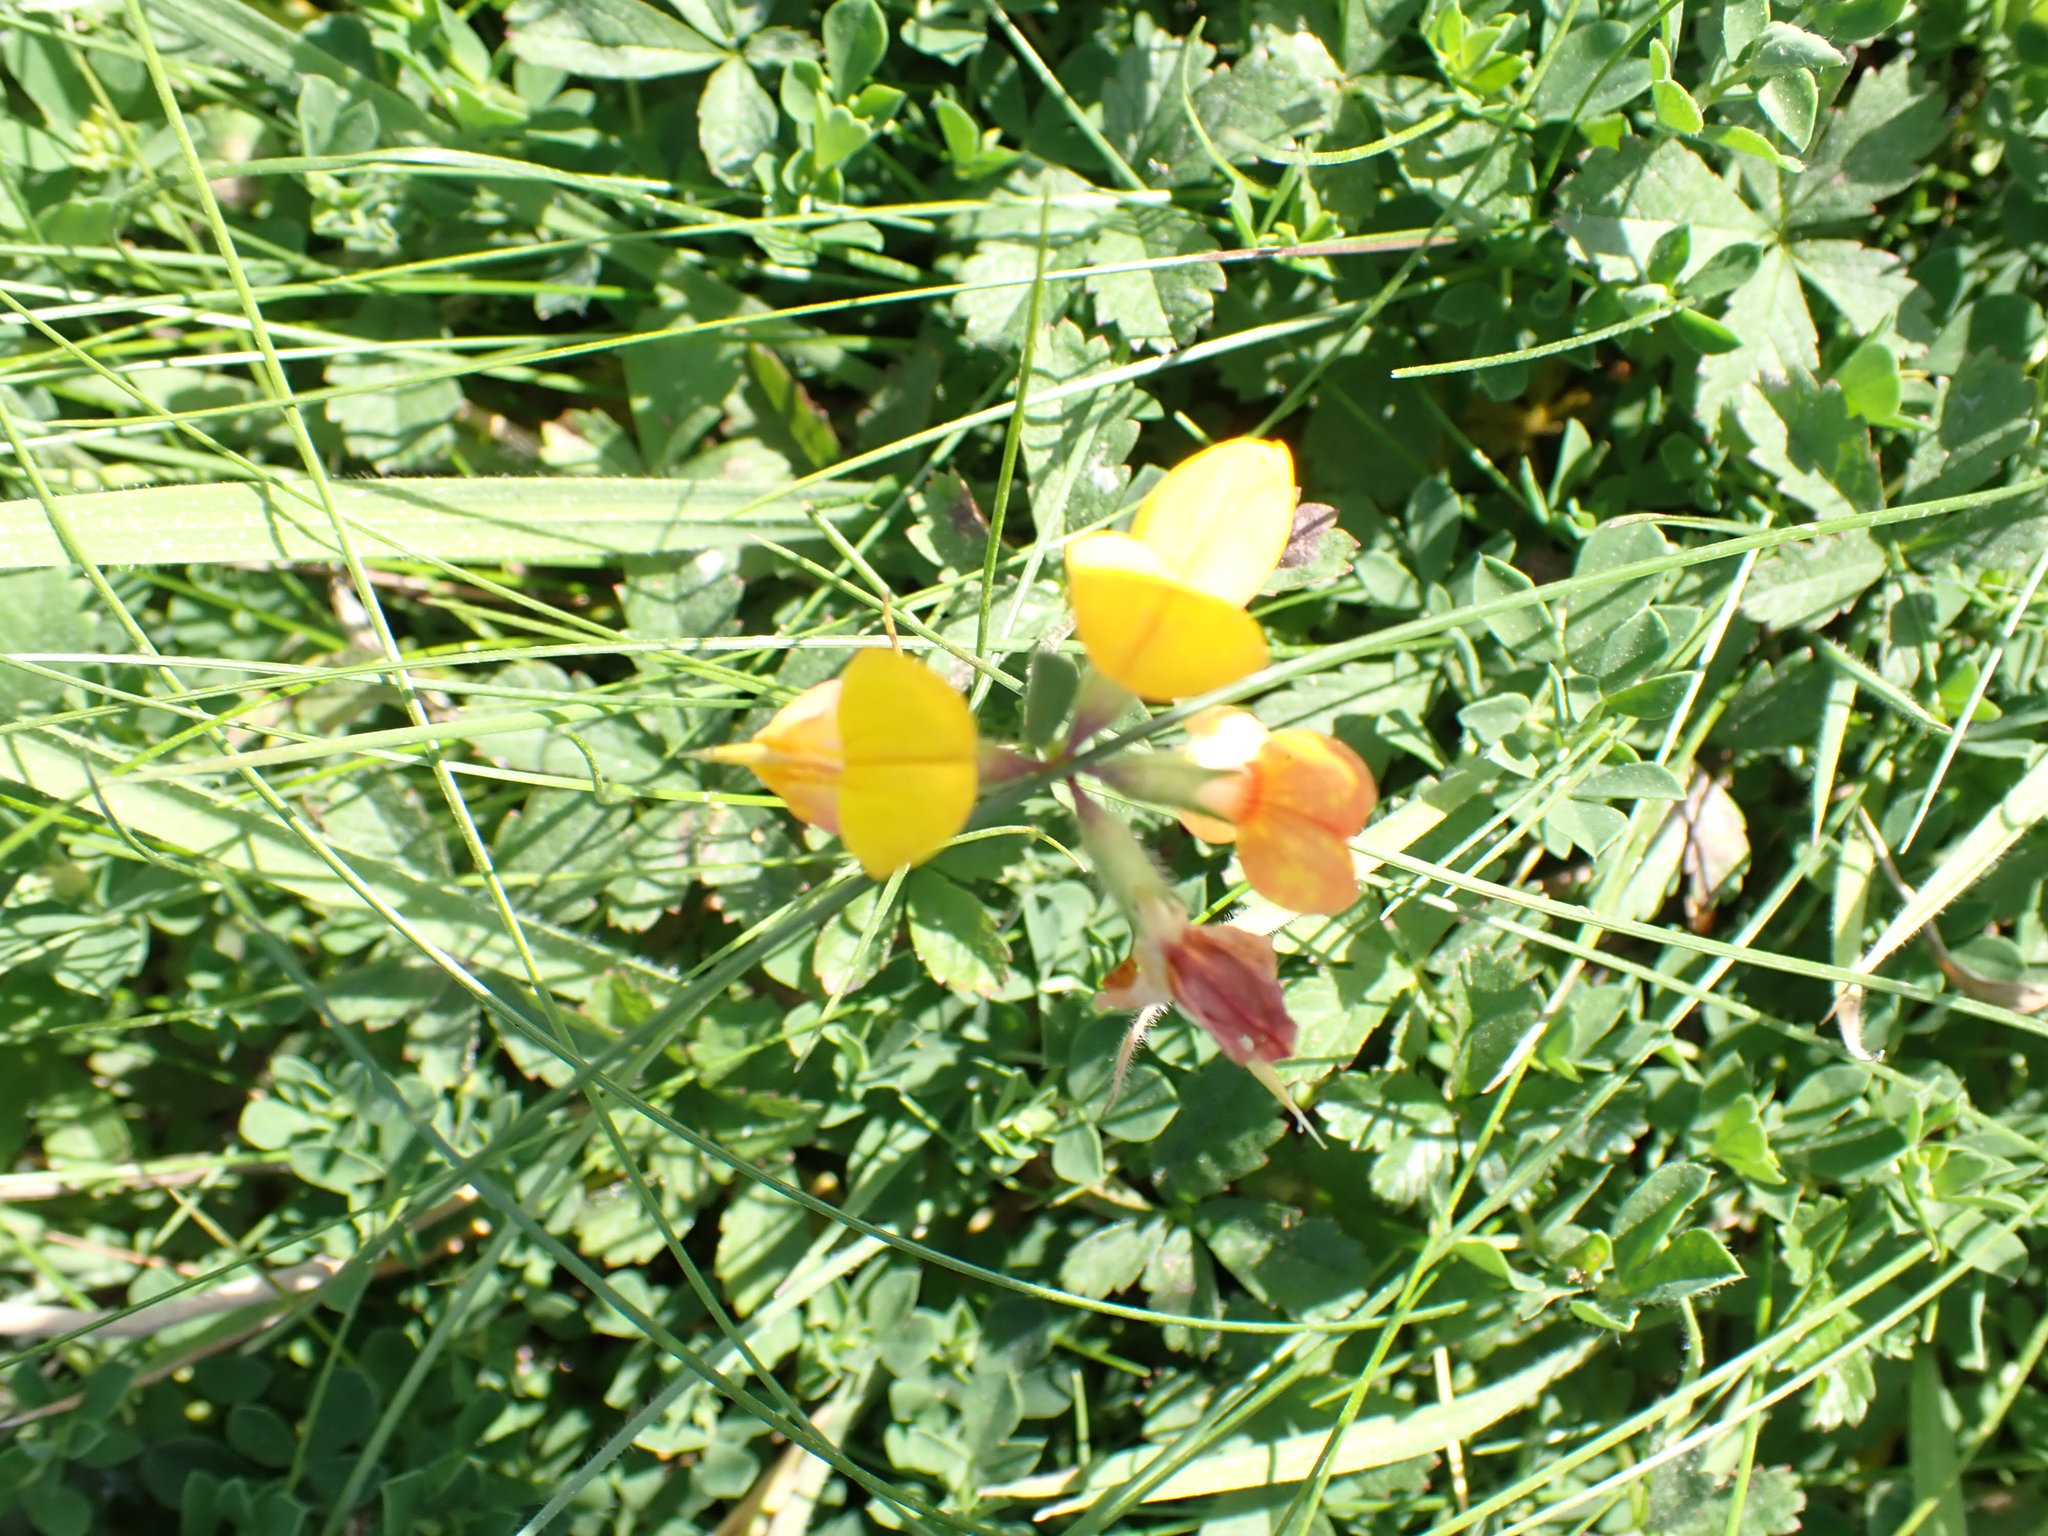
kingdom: Plantae
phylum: Tracheophyta
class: Magnoliopsida
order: Fabales
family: Fabaceae
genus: Lotus
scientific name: Lotus corniculatus
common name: Common bird's-foot-trefoil
